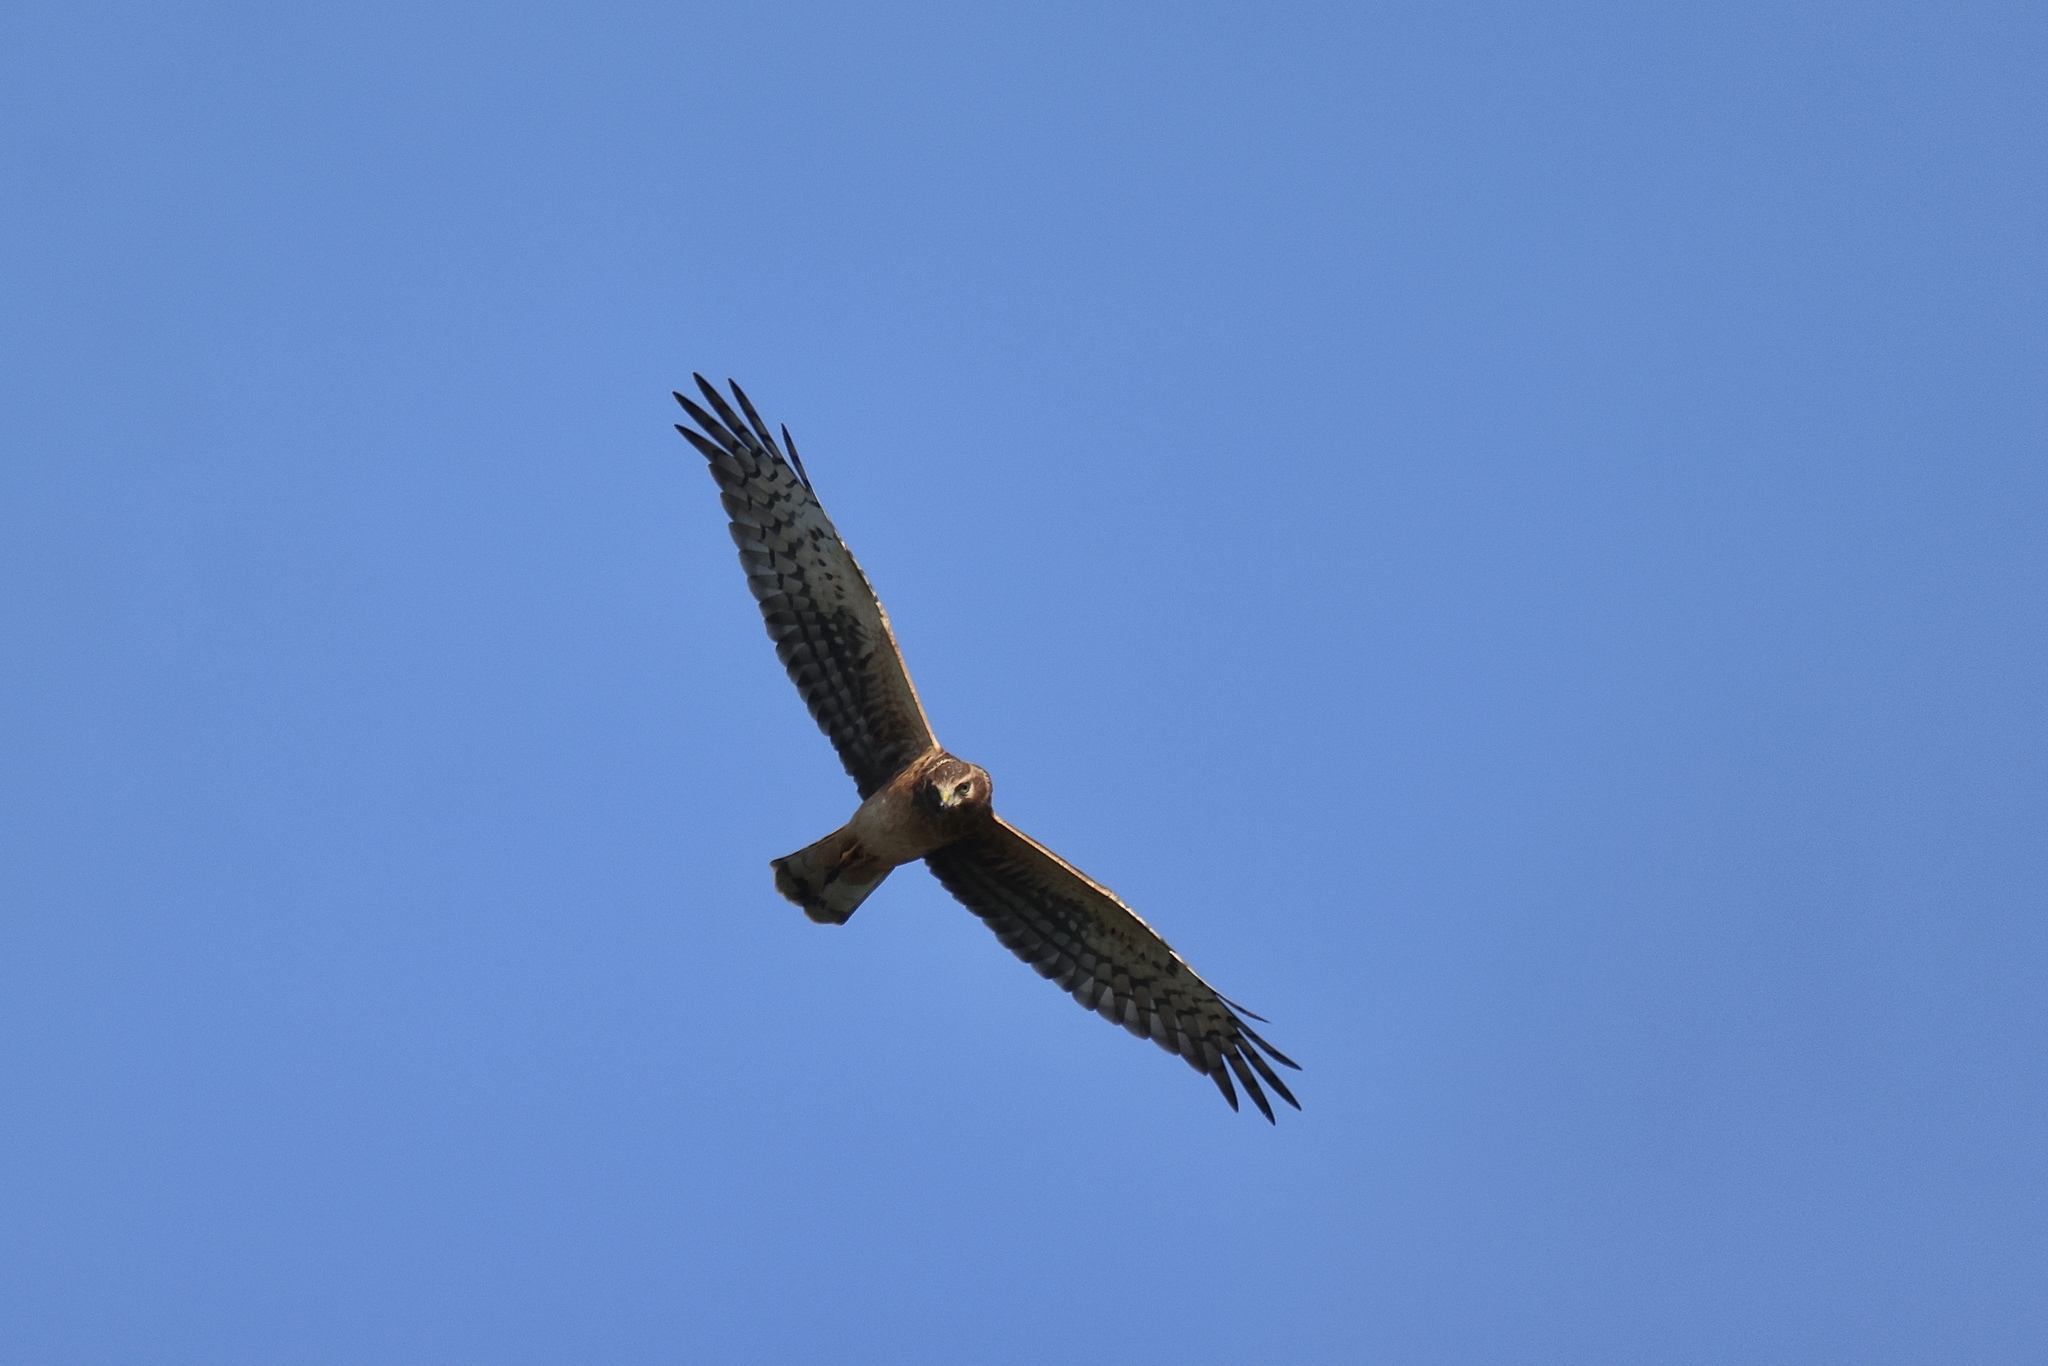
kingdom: Animalia
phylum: Chordata
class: Aves
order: Accipitriformes
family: Accipitridae
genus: Circus
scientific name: Circus cyaneus
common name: Hen harrier
